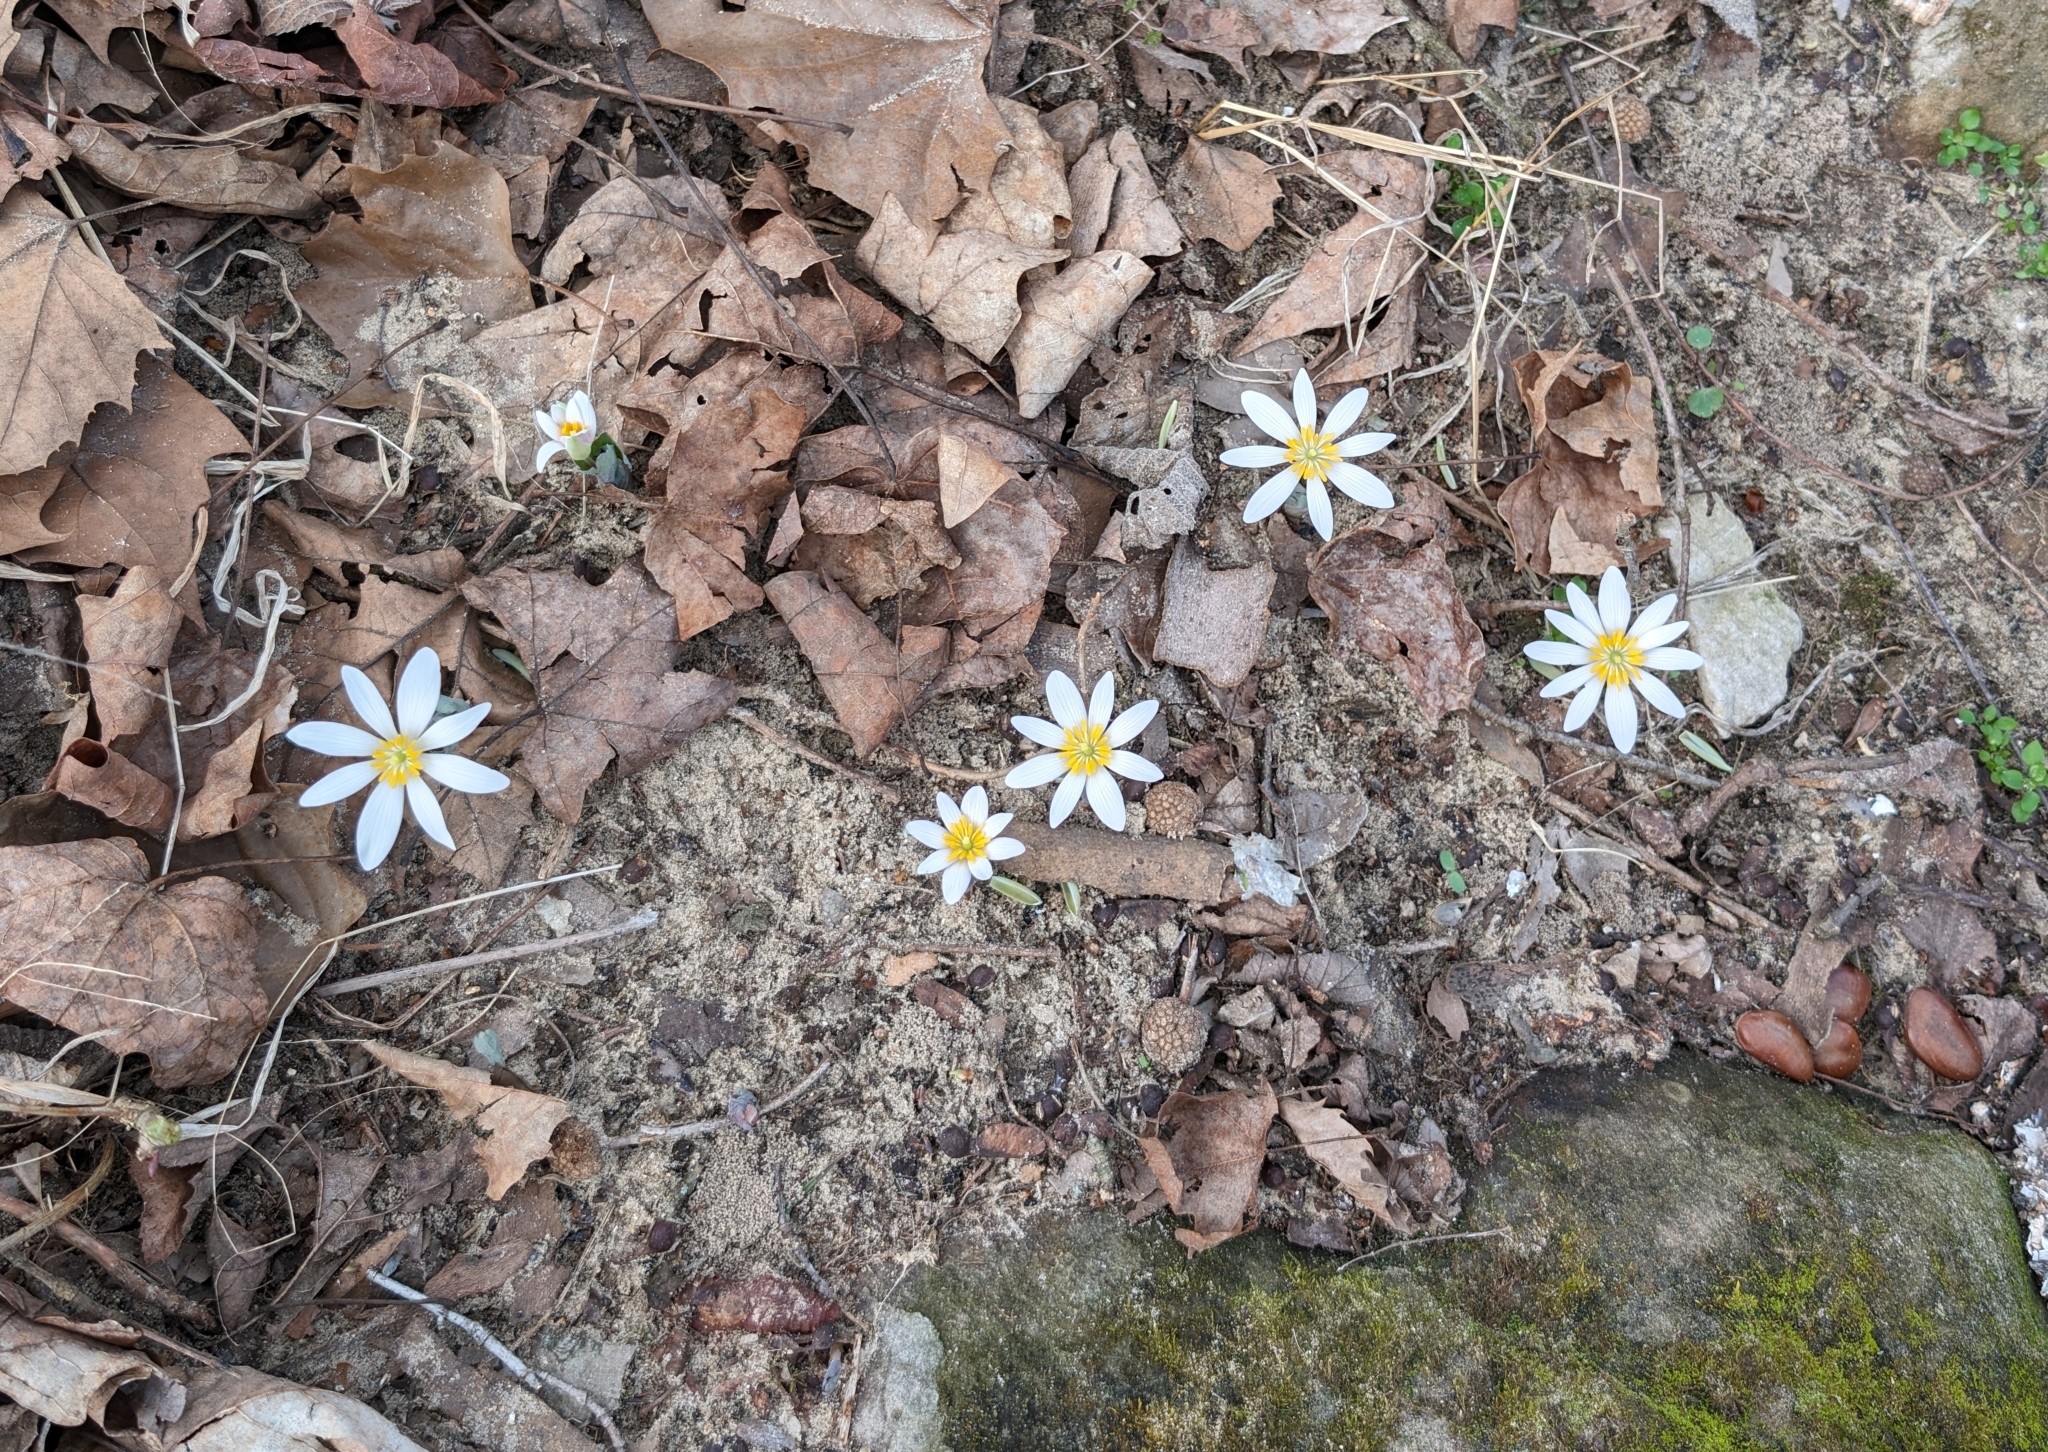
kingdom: Plantae
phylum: Tracheophyta
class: Magnoliopsida
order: Ranunculales
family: Papaveraceae
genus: Sanguinaria
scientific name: Sanguinaria canadensis
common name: Bloodroot
